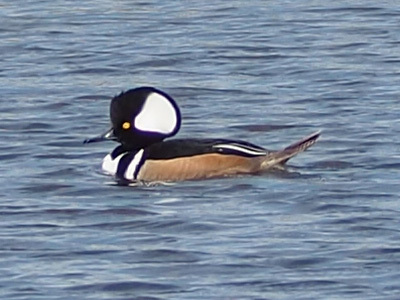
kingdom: Animalia
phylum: Chordata
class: Aves
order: Anseriformes
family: Anatidae
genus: Lophodytes
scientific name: Lophodytes cucullatus
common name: Hooded merganser
